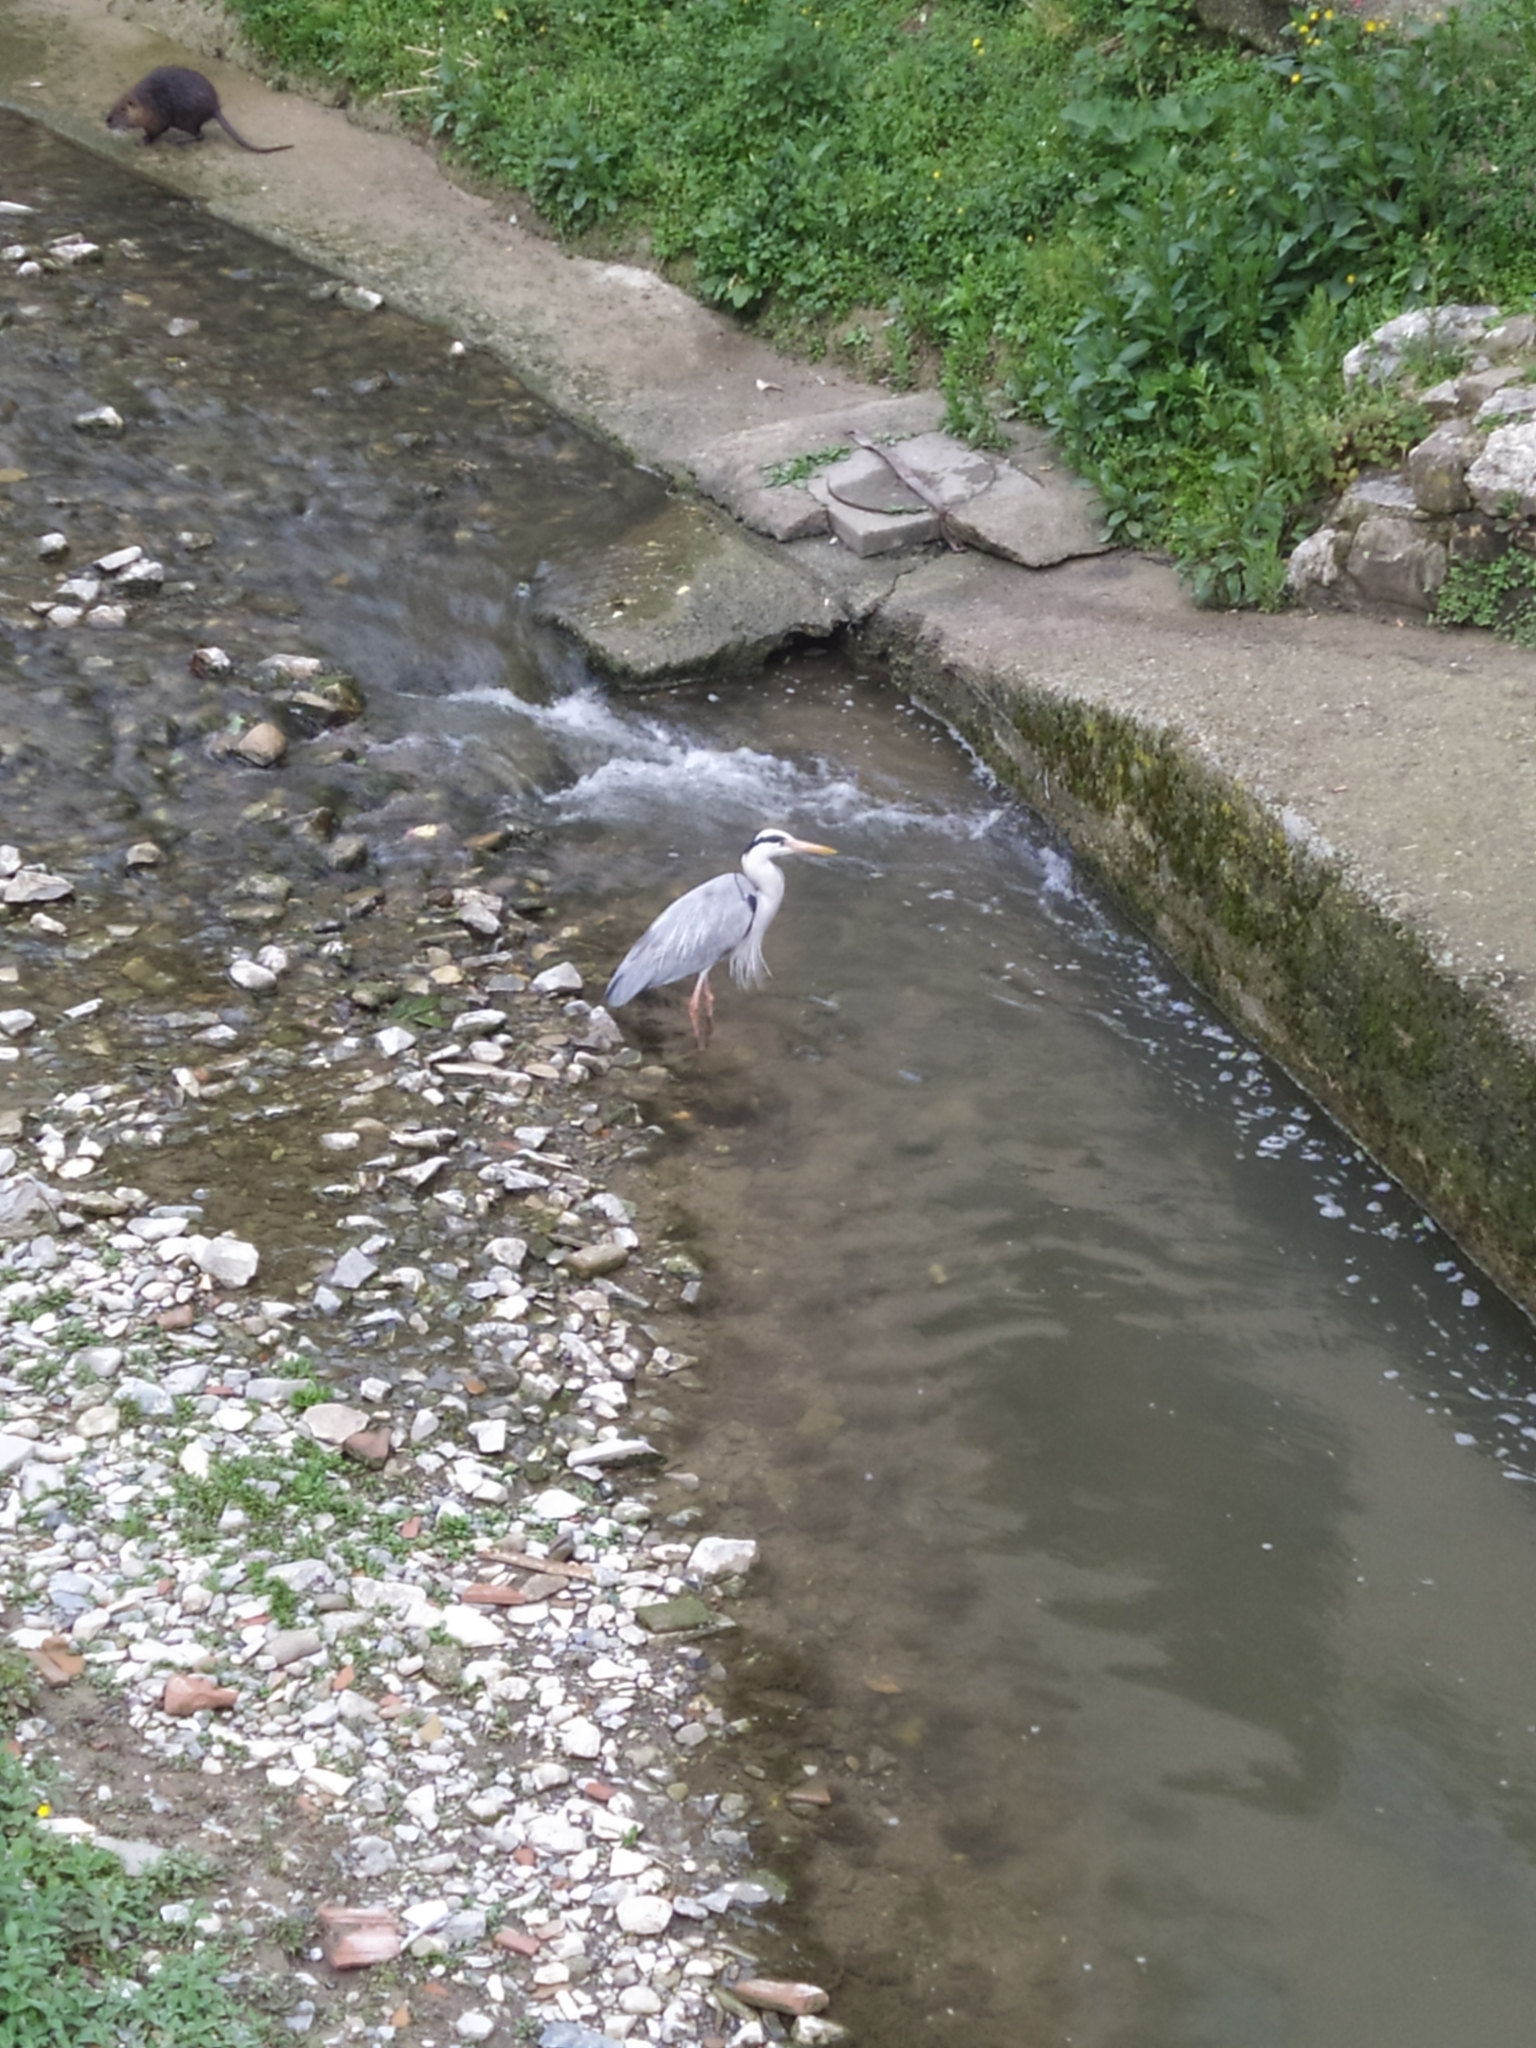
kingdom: Animalia
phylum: Chordata
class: Aves
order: Pelecaniformes
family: Ardeidae
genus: Ardea
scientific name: Ardea cinerea
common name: Grey heron
